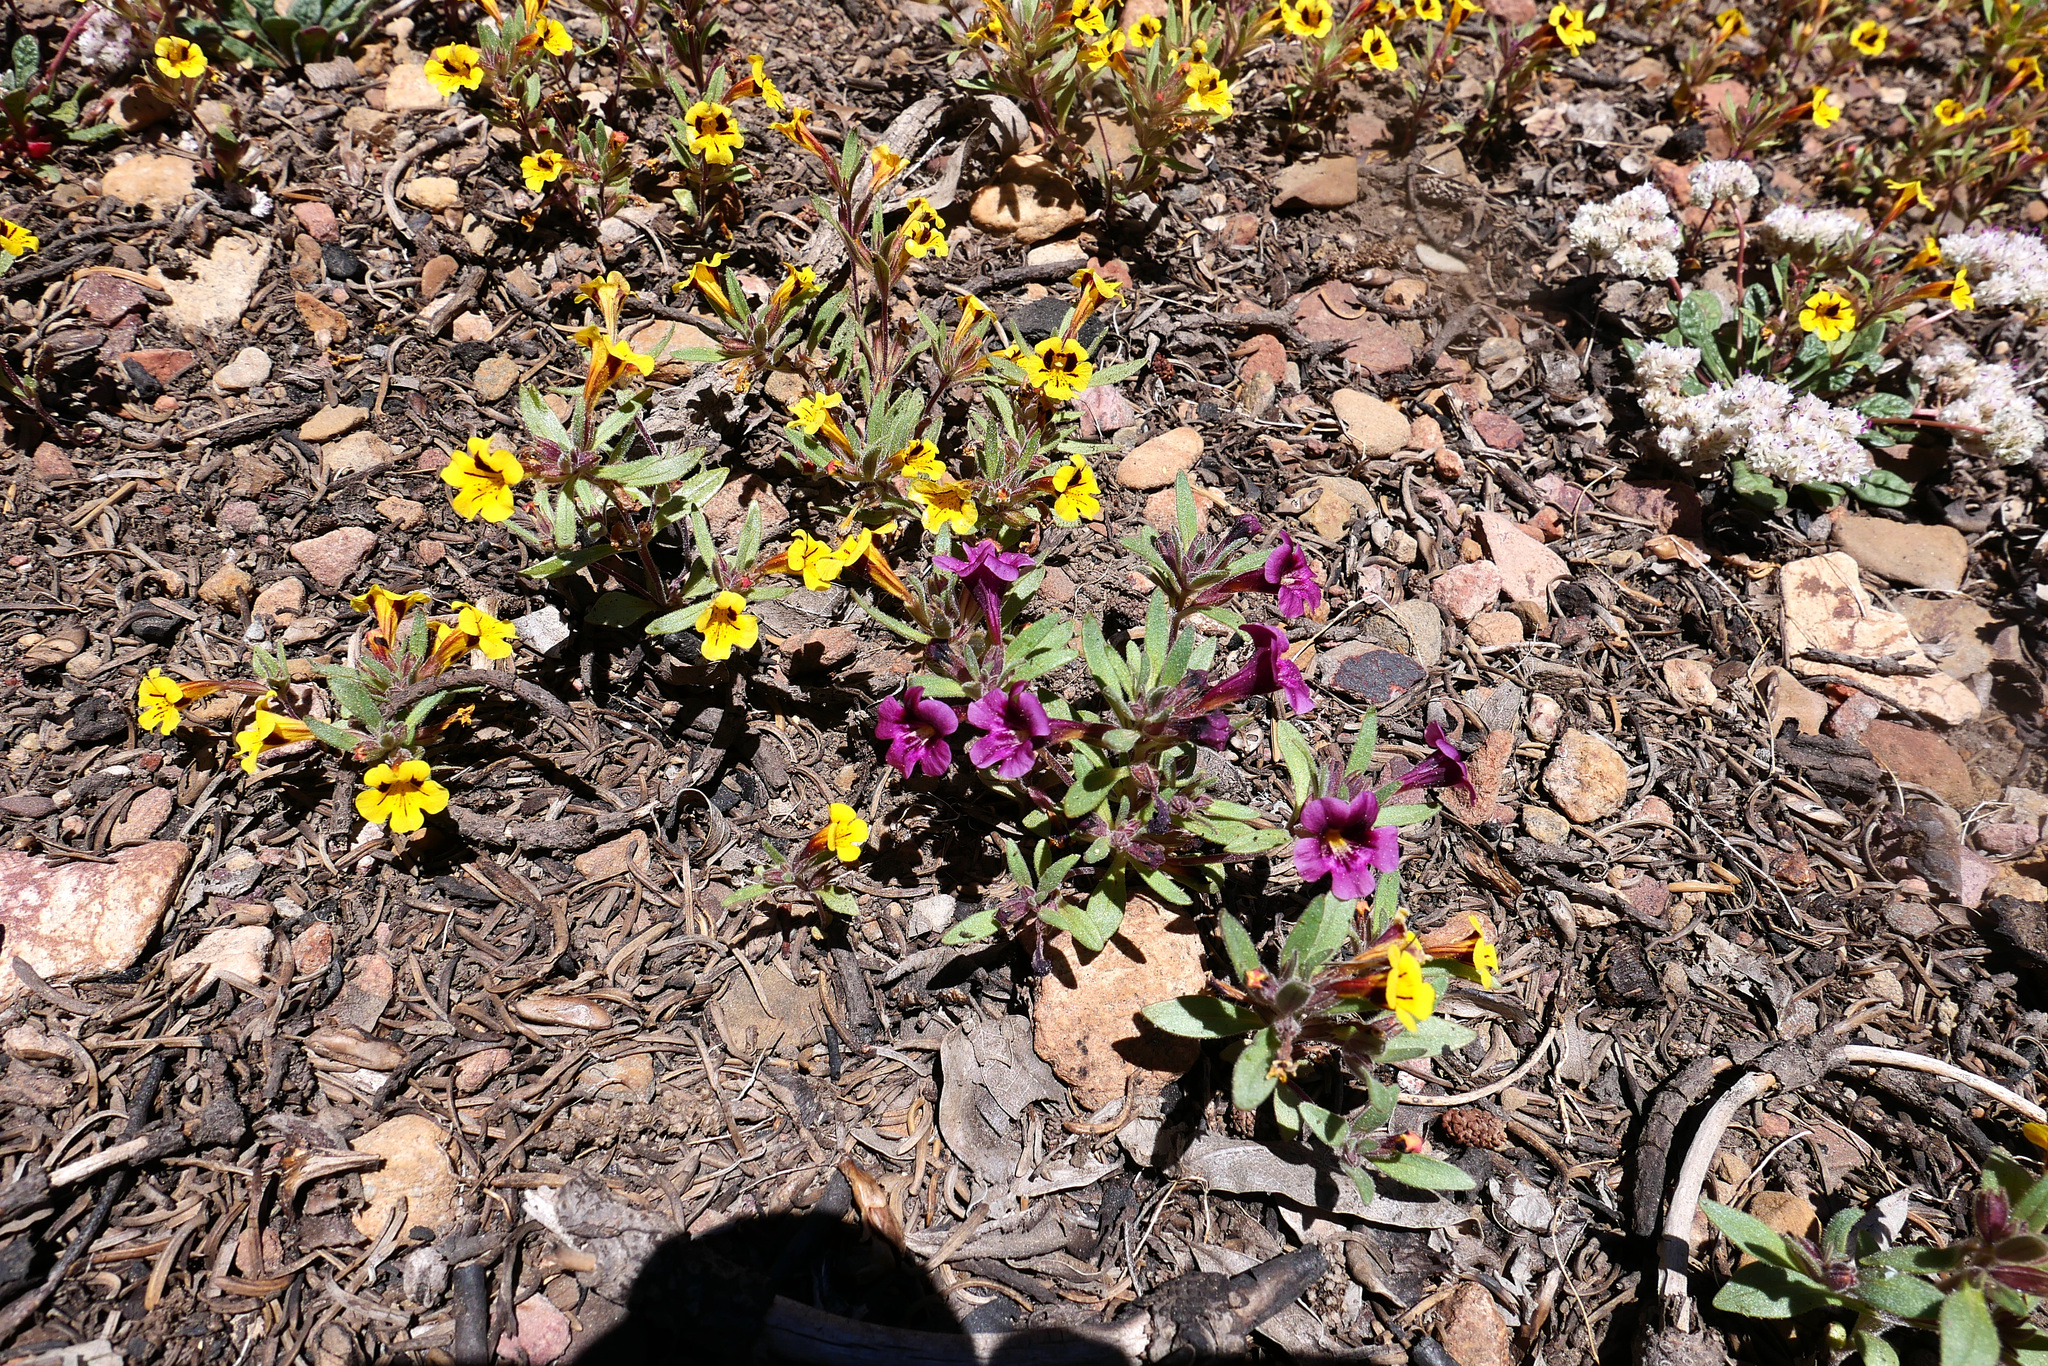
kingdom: Plantae
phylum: Tracheophyta
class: Magnoliopsida
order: Lamiales
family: Phrymaceae
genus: Diplacus
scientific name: Diplacus bicolor
